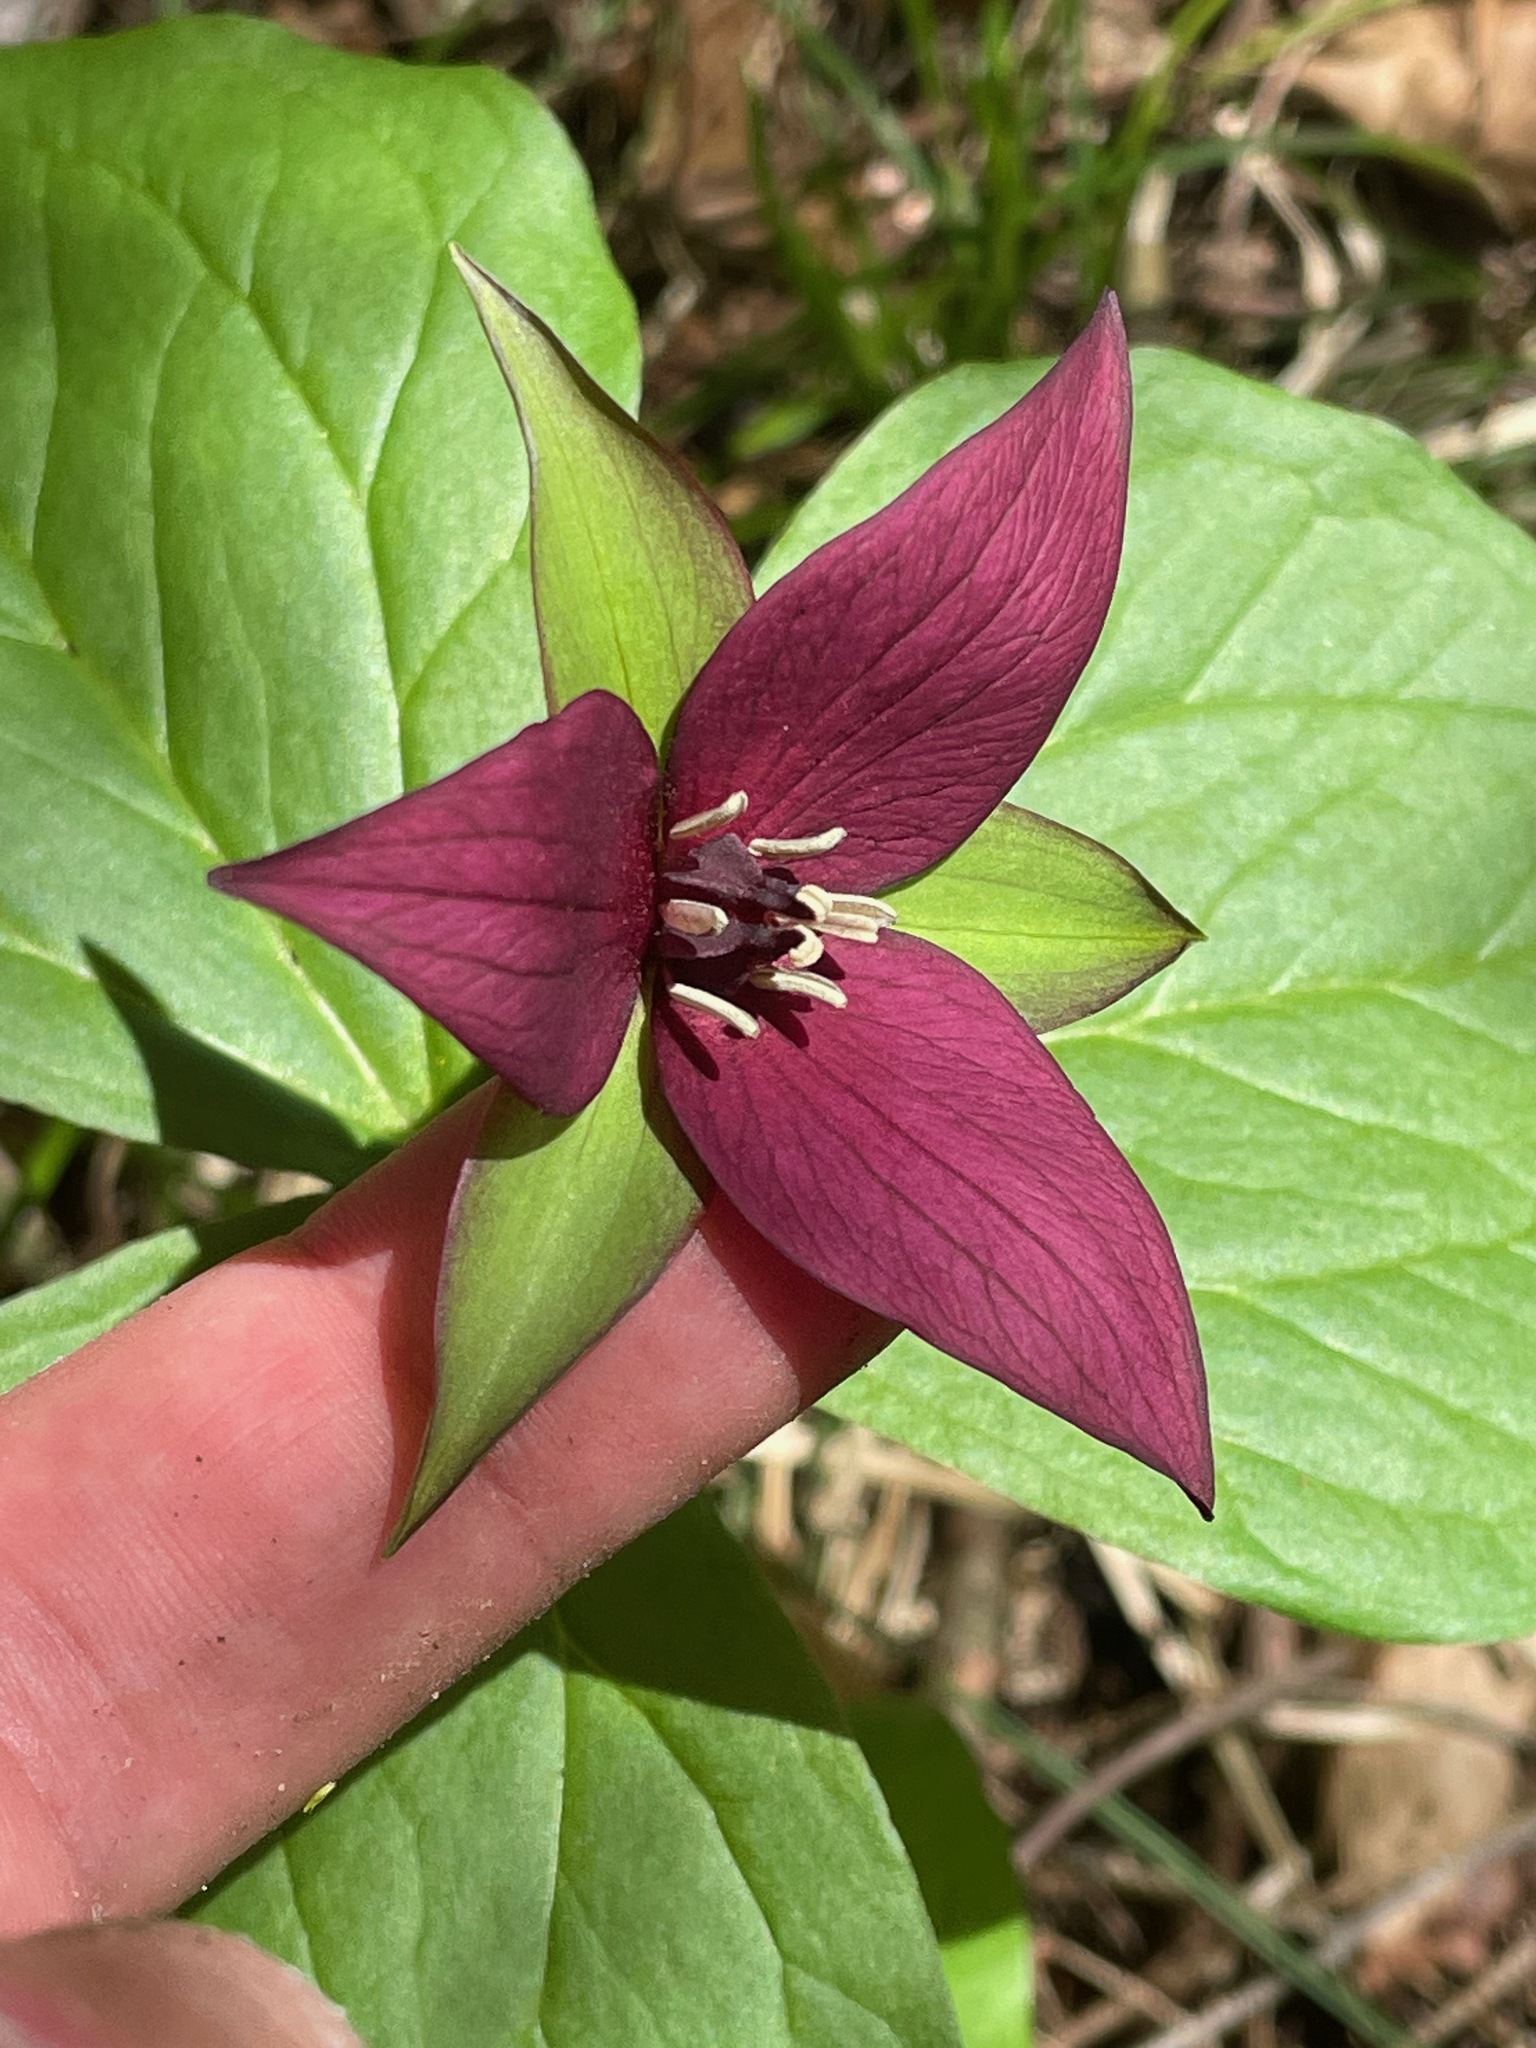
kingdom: Plantae
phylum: Tracheophyta
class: Liliopsida
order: Liliales
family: Melanthiaceae
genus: Trillium
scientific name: Trillium erectum
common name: Purple trillium
